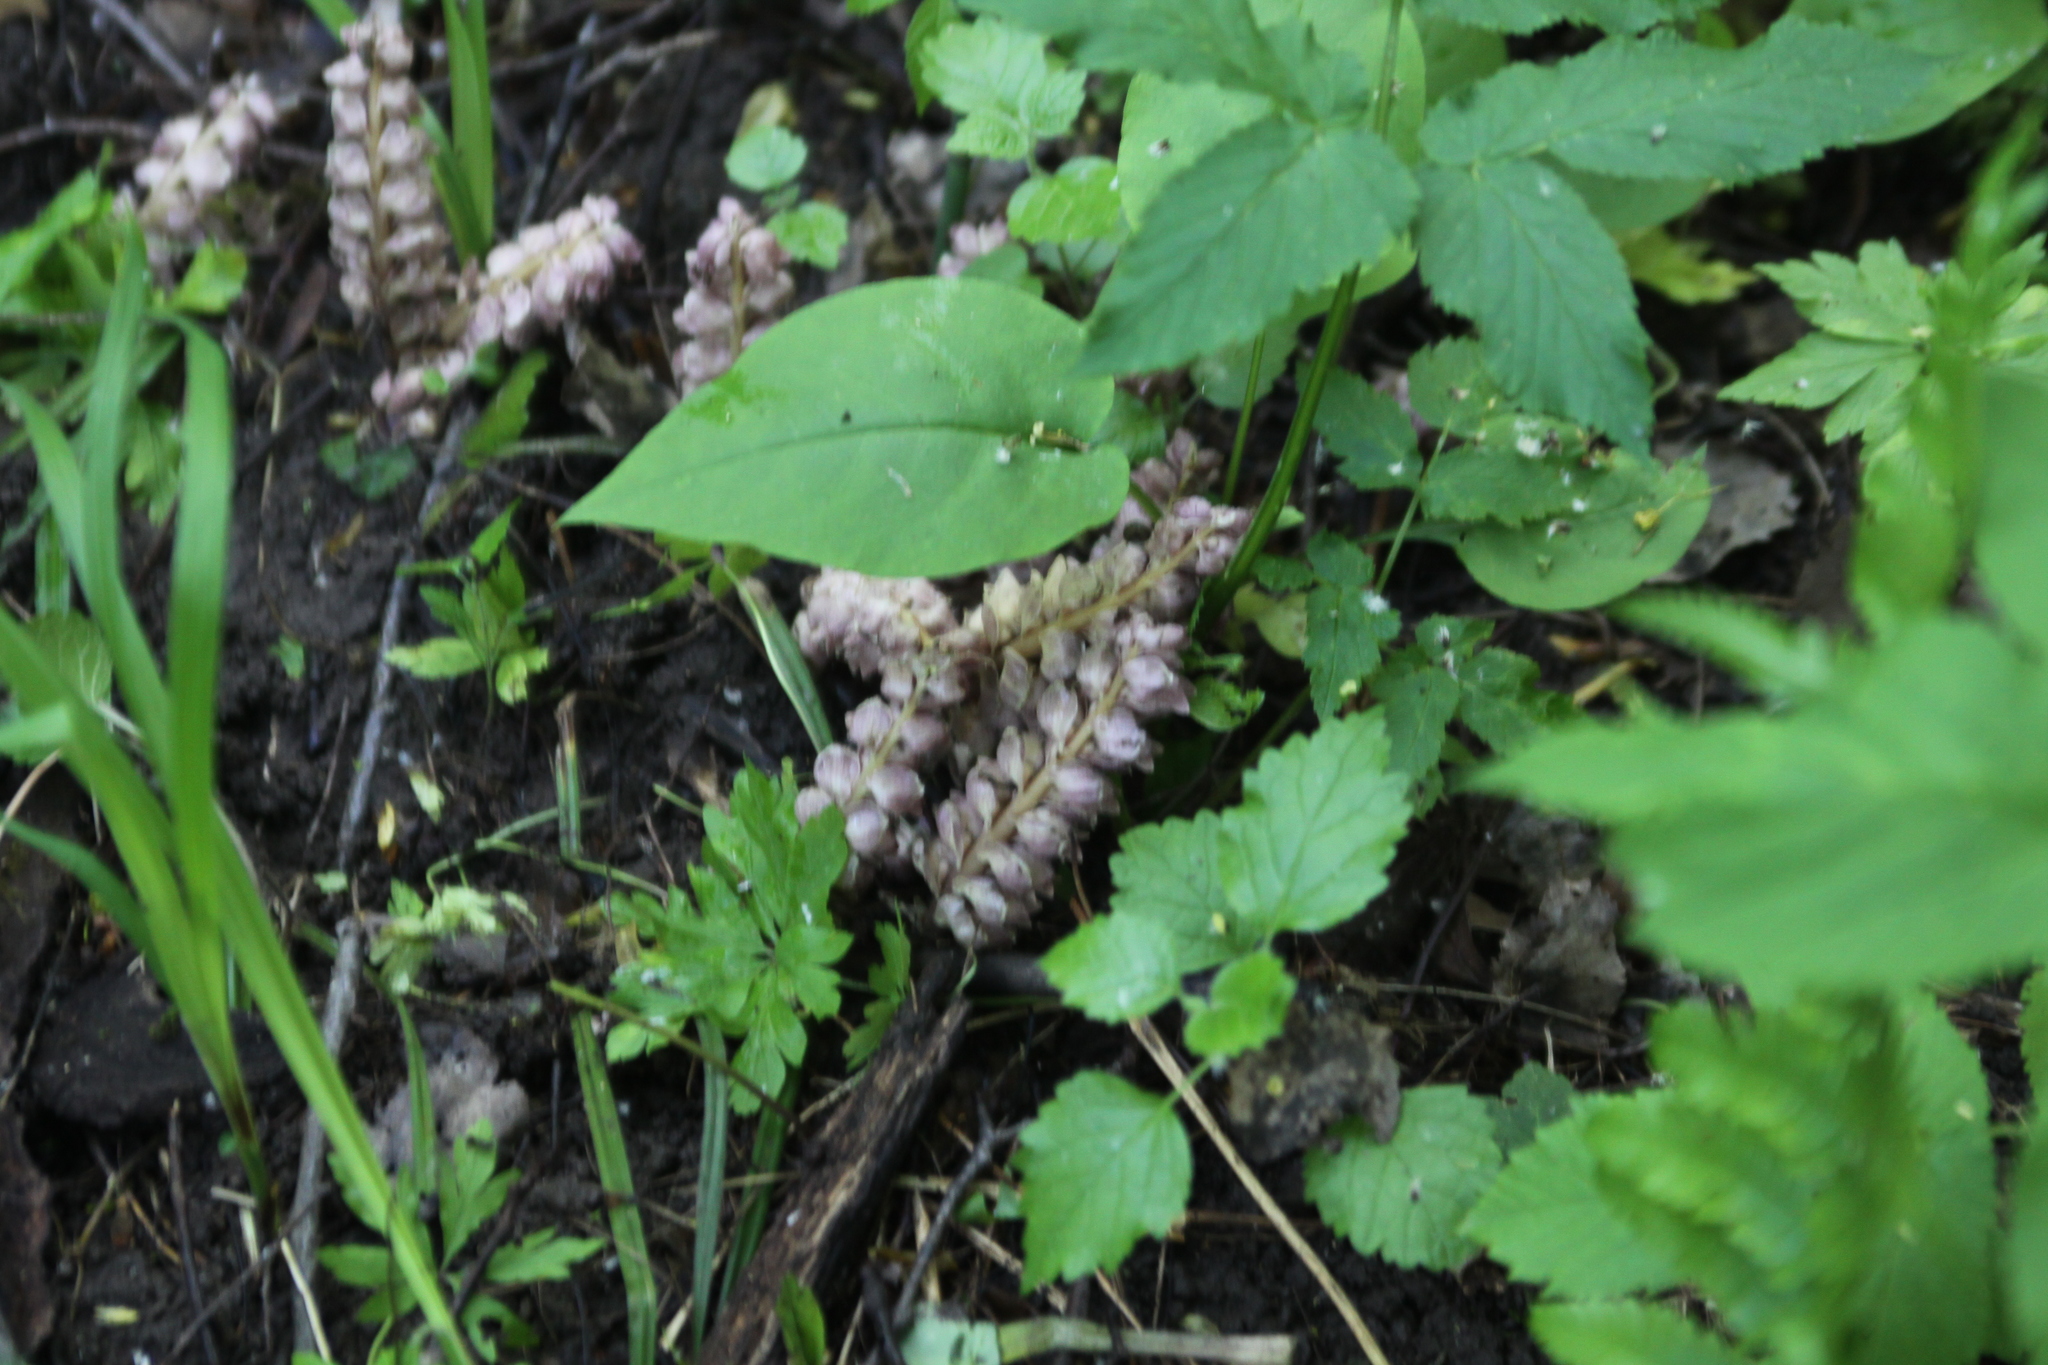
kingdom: Plantae
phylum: Tracheophyta
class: Magnoliopsida
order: Lamiales
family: Orobanchaceae
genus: Lathraea
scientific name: Lathraea squamaria
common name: Toothwort
